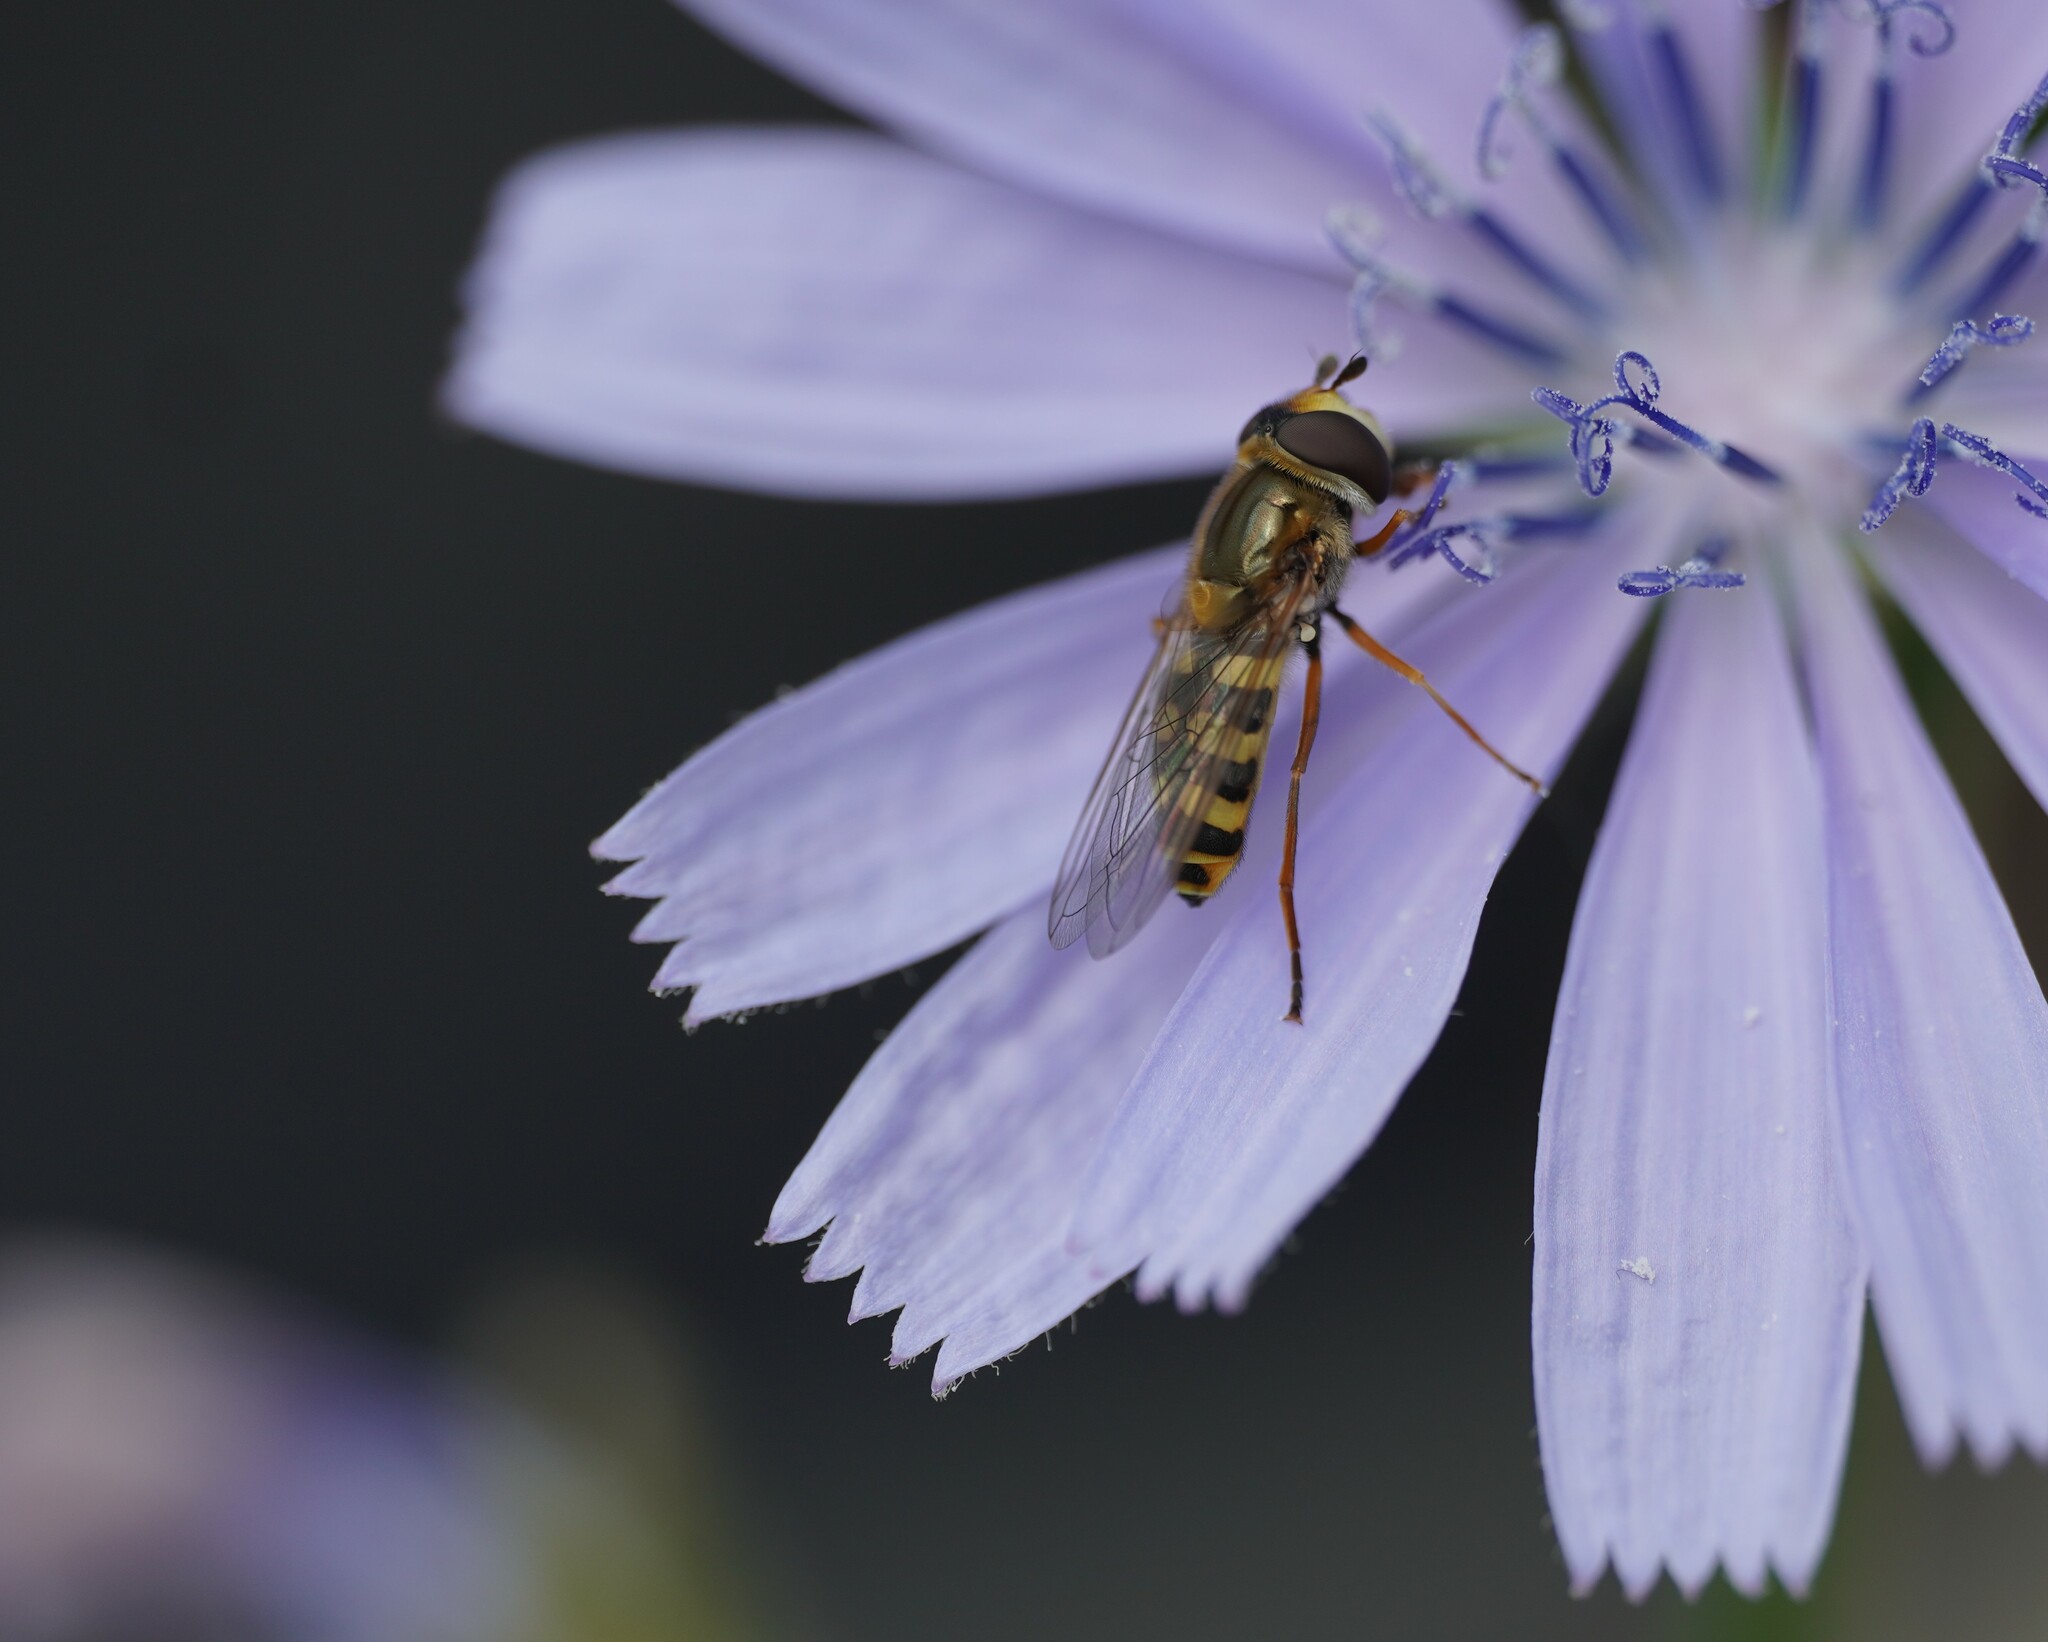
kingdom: Animalia
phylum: Arthropoda
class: Insecta
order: Diptera
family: Syrphidae
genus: Eupeodes
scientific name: Eupeodes corollae
